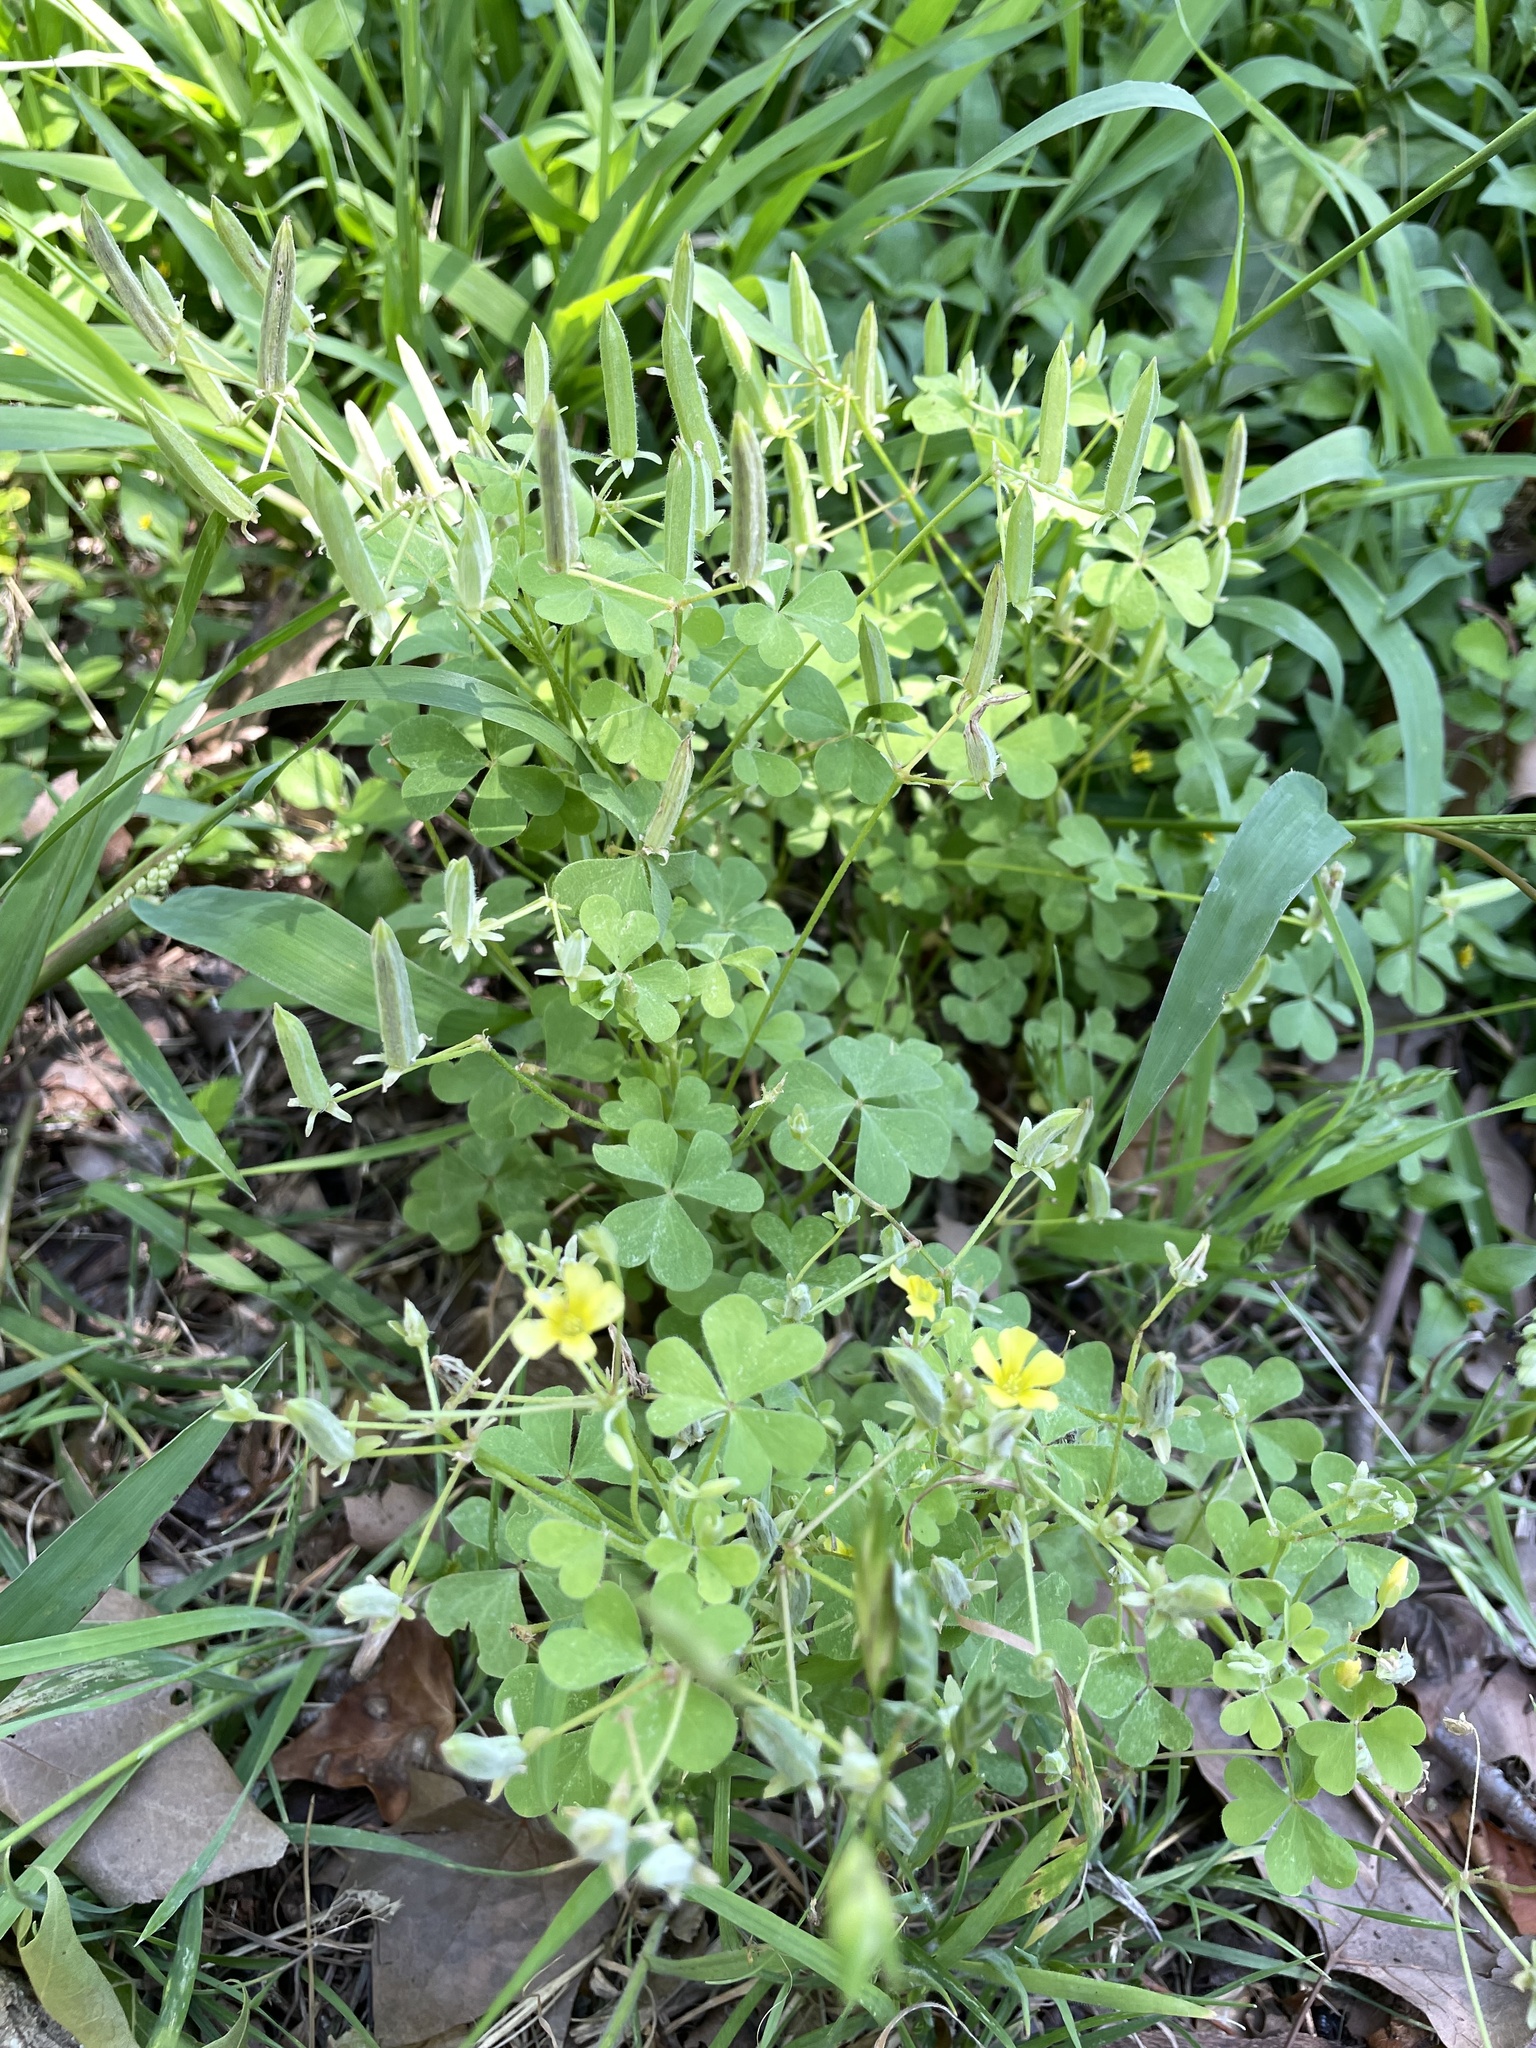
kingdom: Plantae
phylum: Tracheophyta
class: Magnoliopsida
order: Oxalidales
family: Oxalidaceae
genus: Oxalis
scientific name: Oxalis dillenii
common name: Sussex yellow-sorrel
